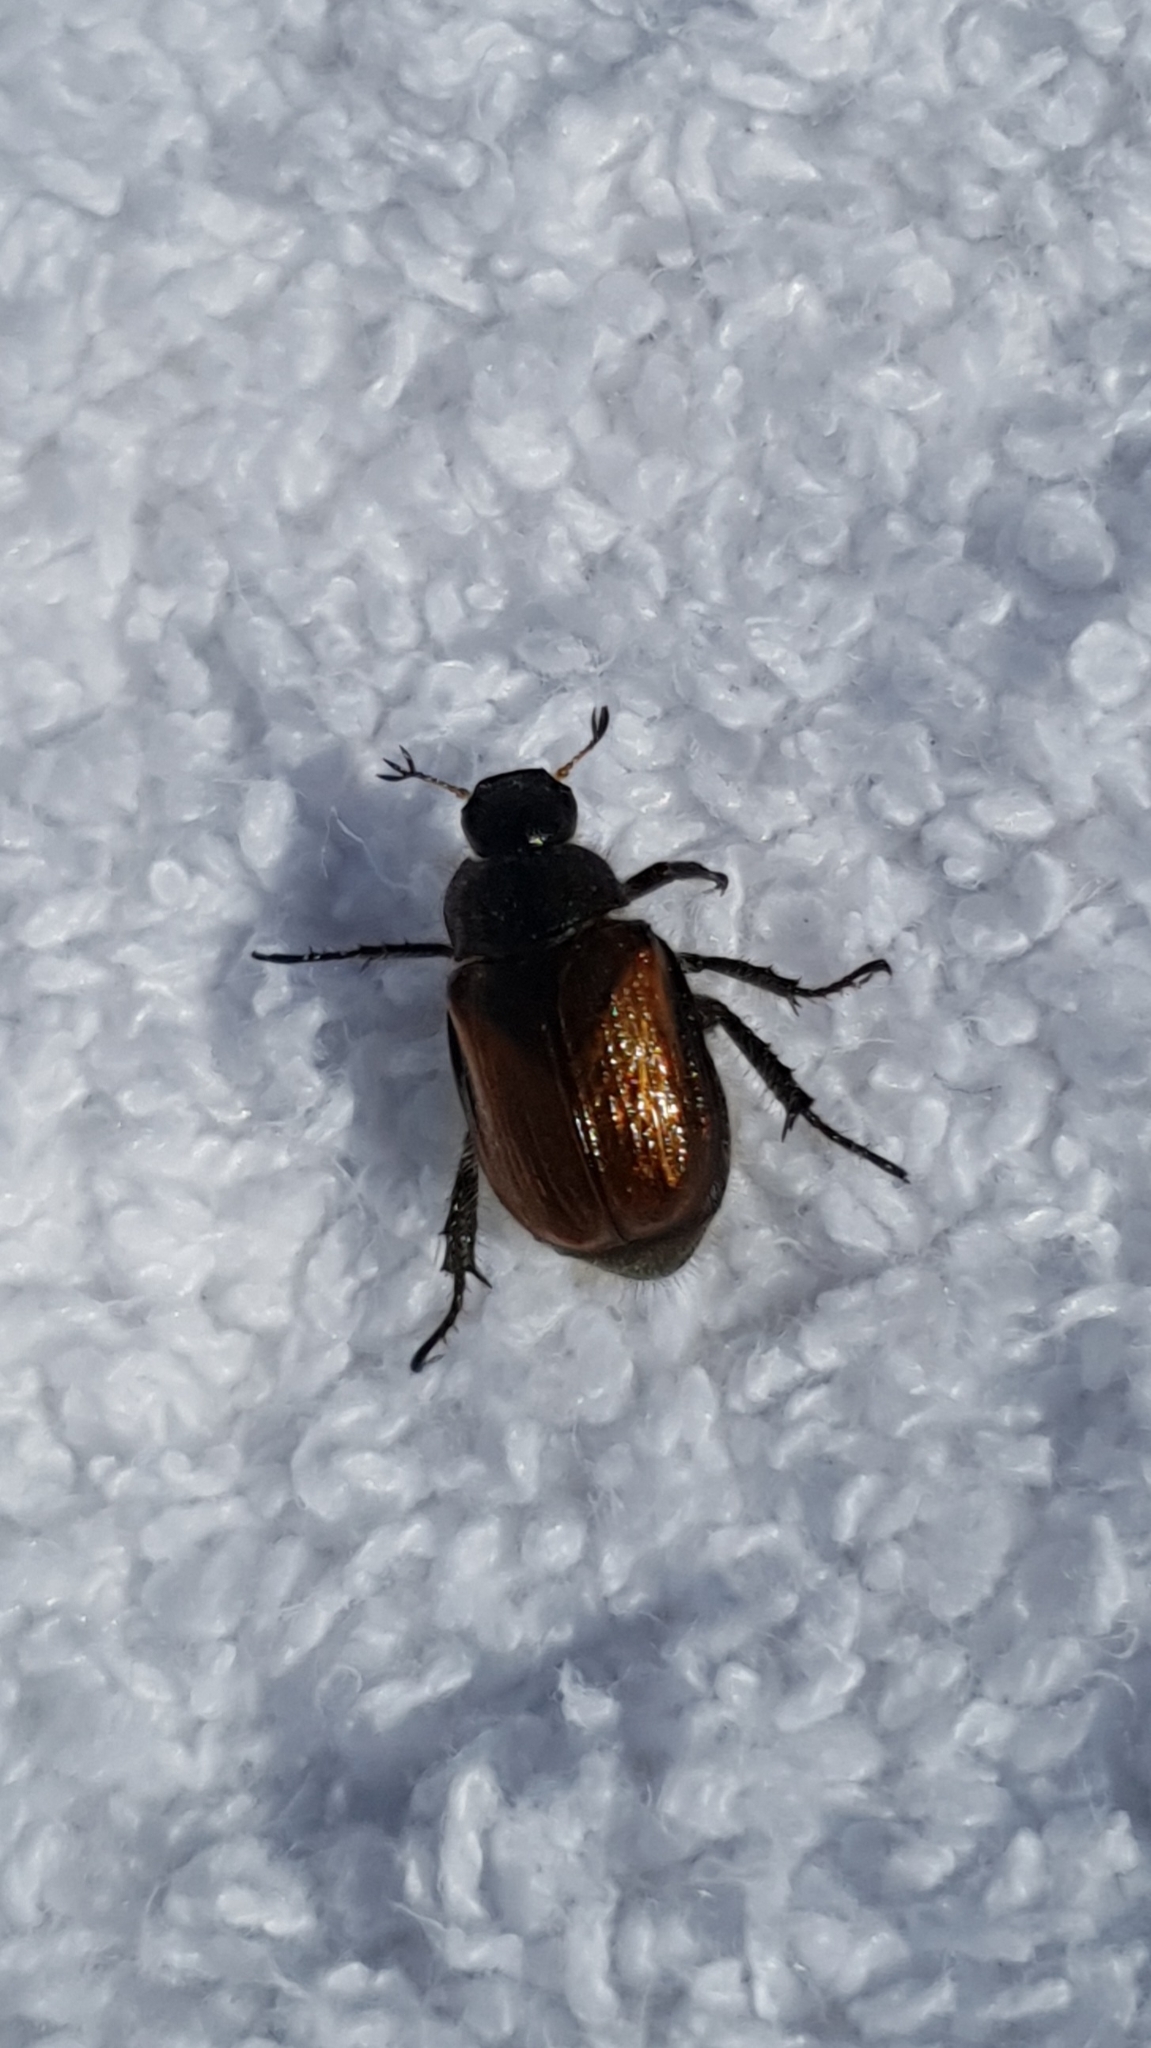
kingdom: Animalia
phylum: Arthropoda
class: Insecta
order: Coleoptera
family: Scarabaeidae
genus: Phyllopertha
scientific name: Phyllopertha horticola
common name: Garden chafer
